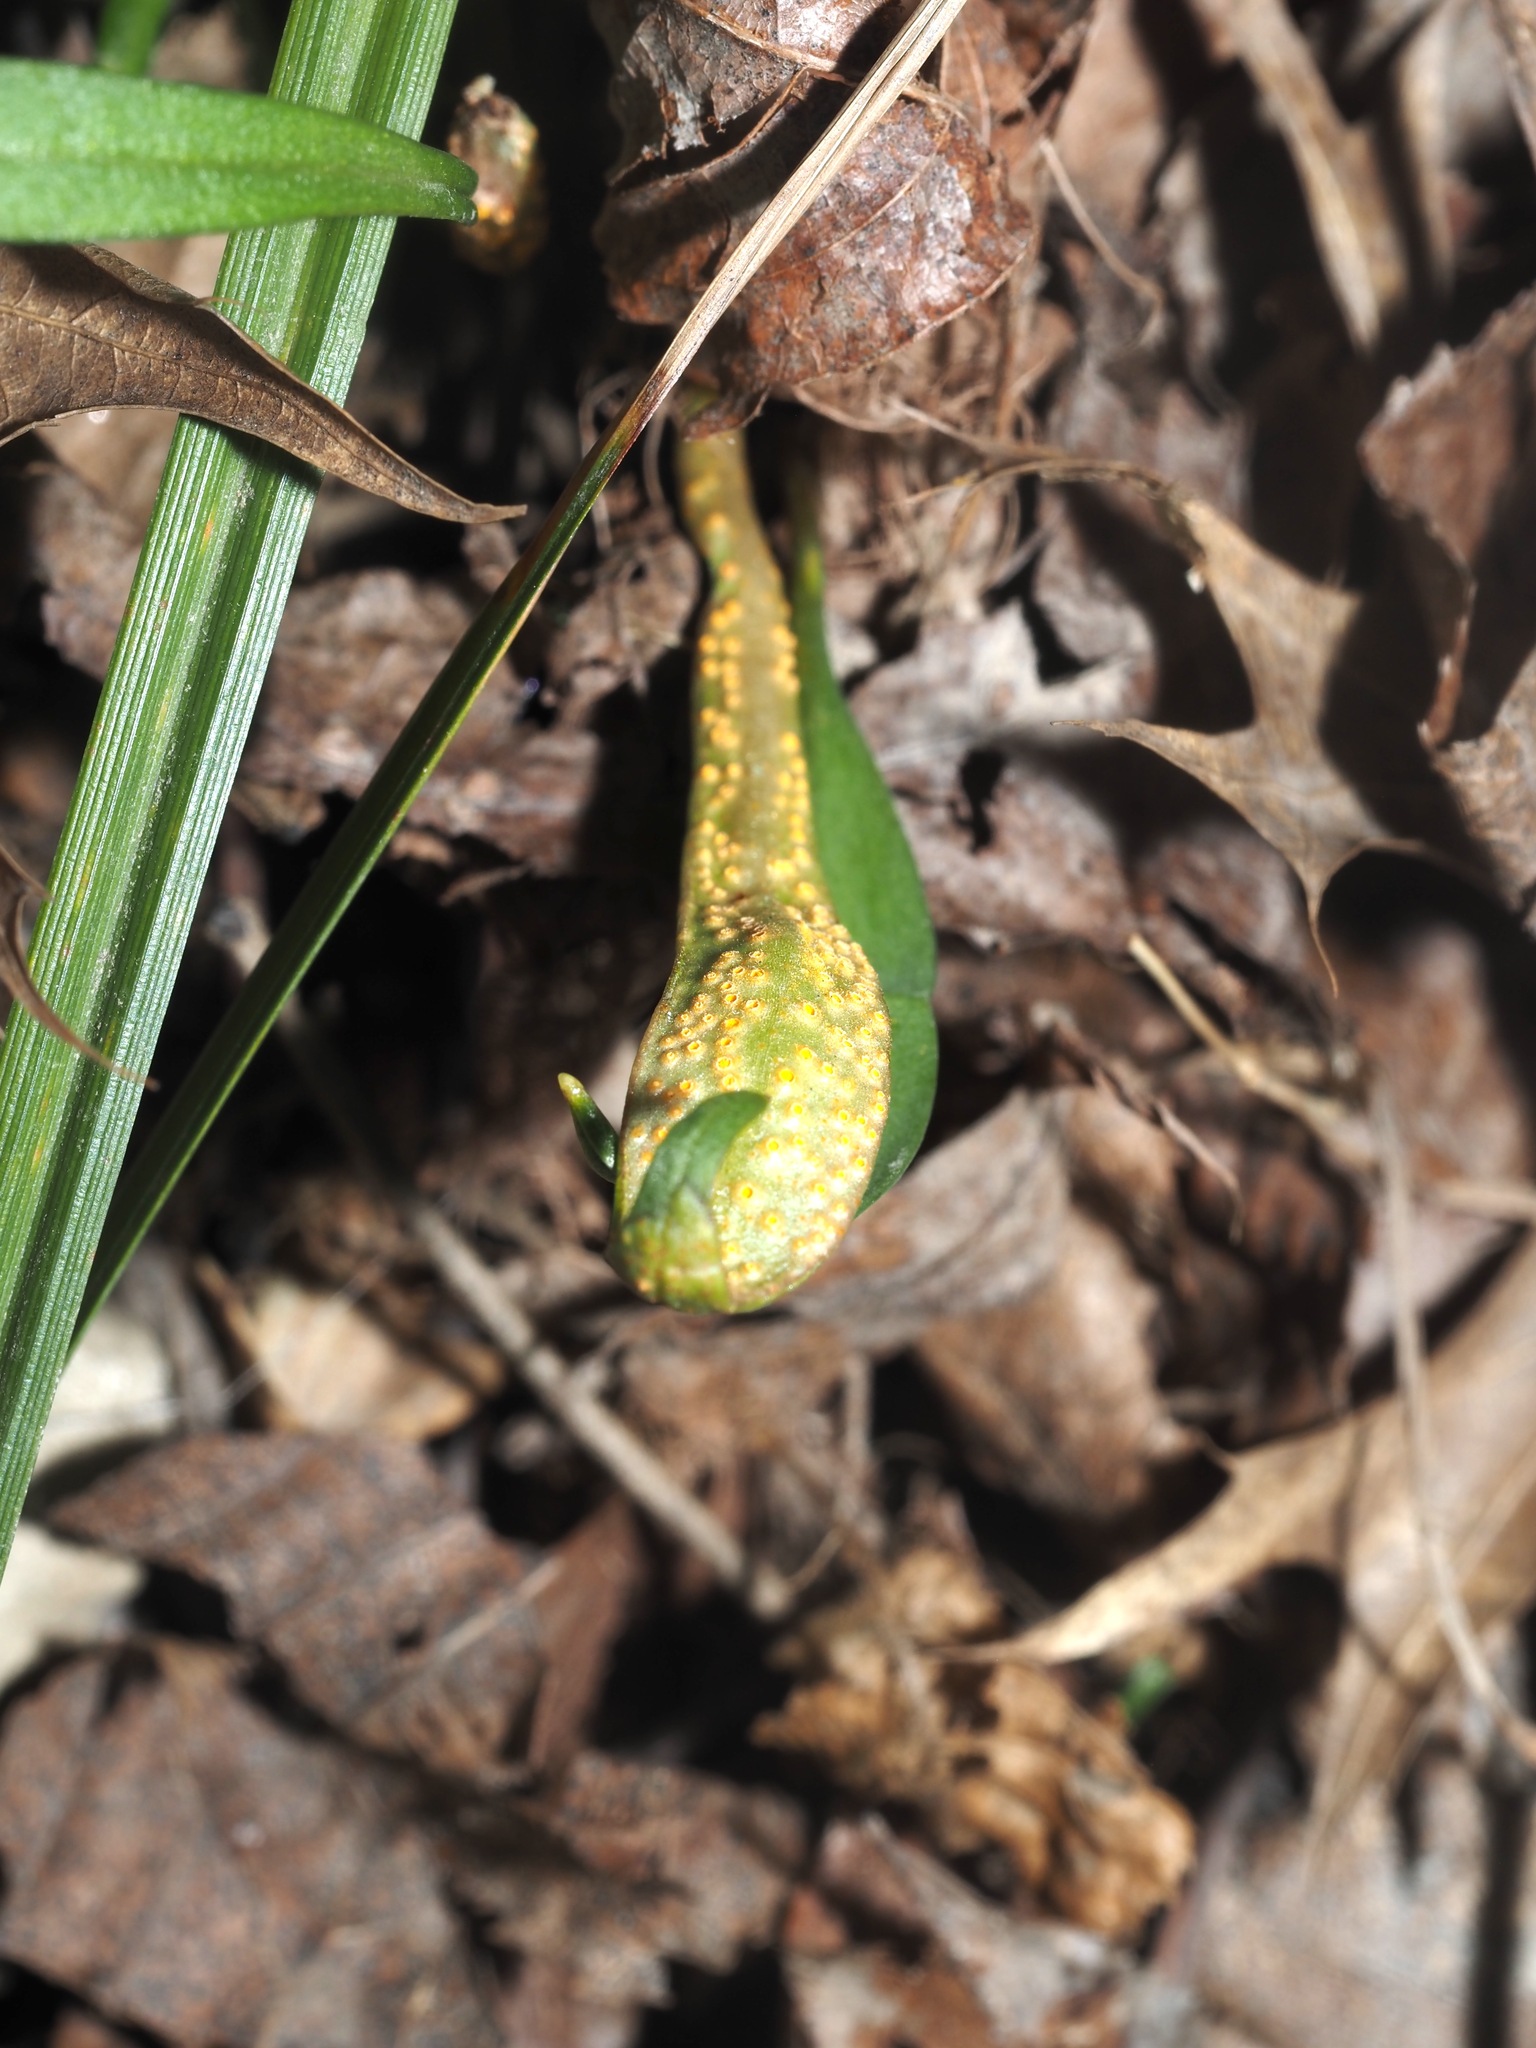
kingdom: Fungi
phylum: Basidiomycota
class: Pucciniomycetes
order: Pucciniales
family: Pucciniaceae
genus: Puccinia
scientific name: Puccinia mariae-wilsoniae
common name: Spring beauty rust
